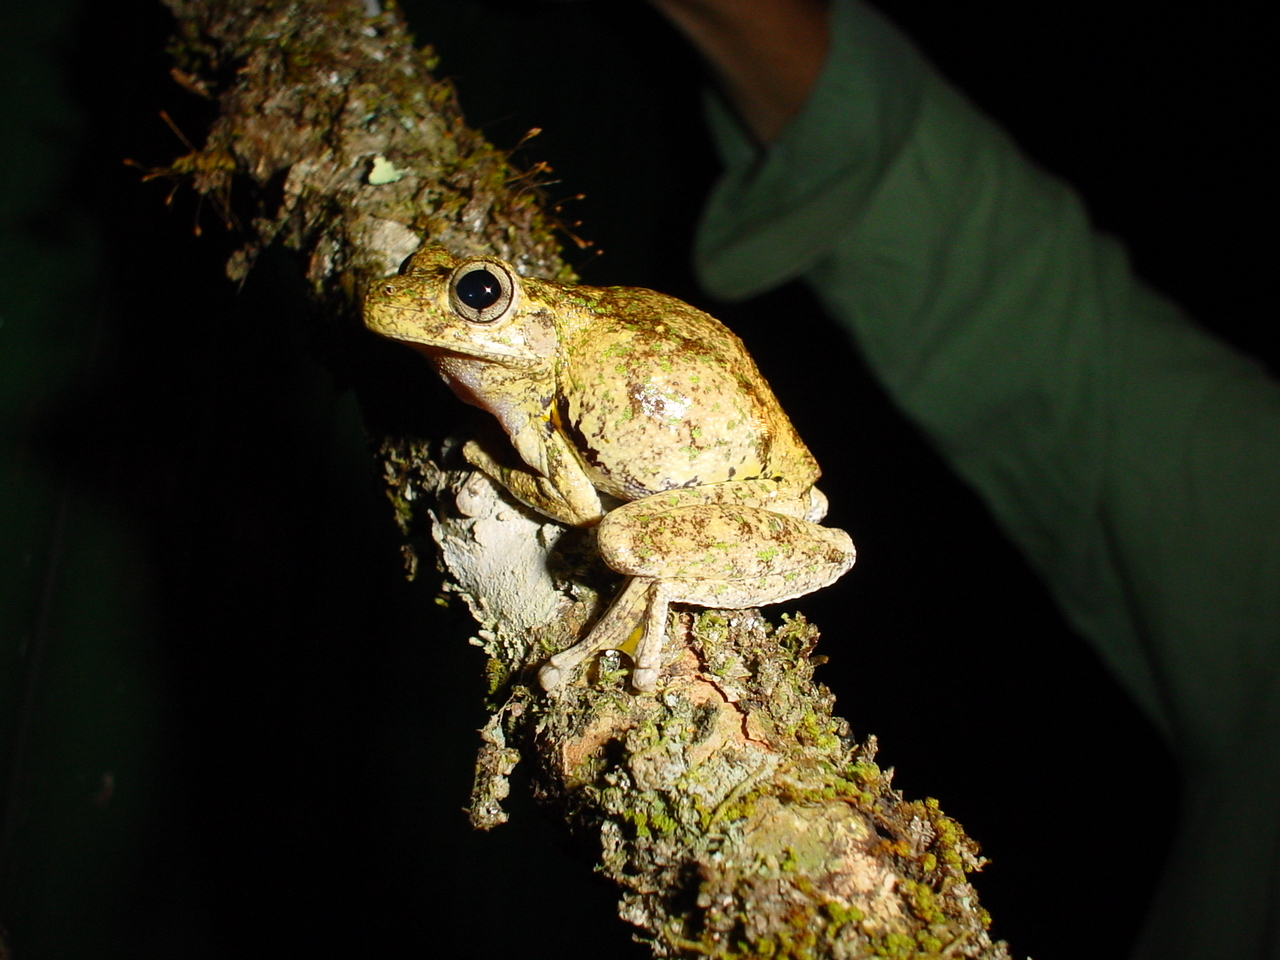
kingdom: Animalia
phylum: Chordata
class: Amphibia
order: Anura
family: Pelodryadidae
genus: Litoria
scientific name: Litoria peronii
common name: Emerald spotted treefrog
